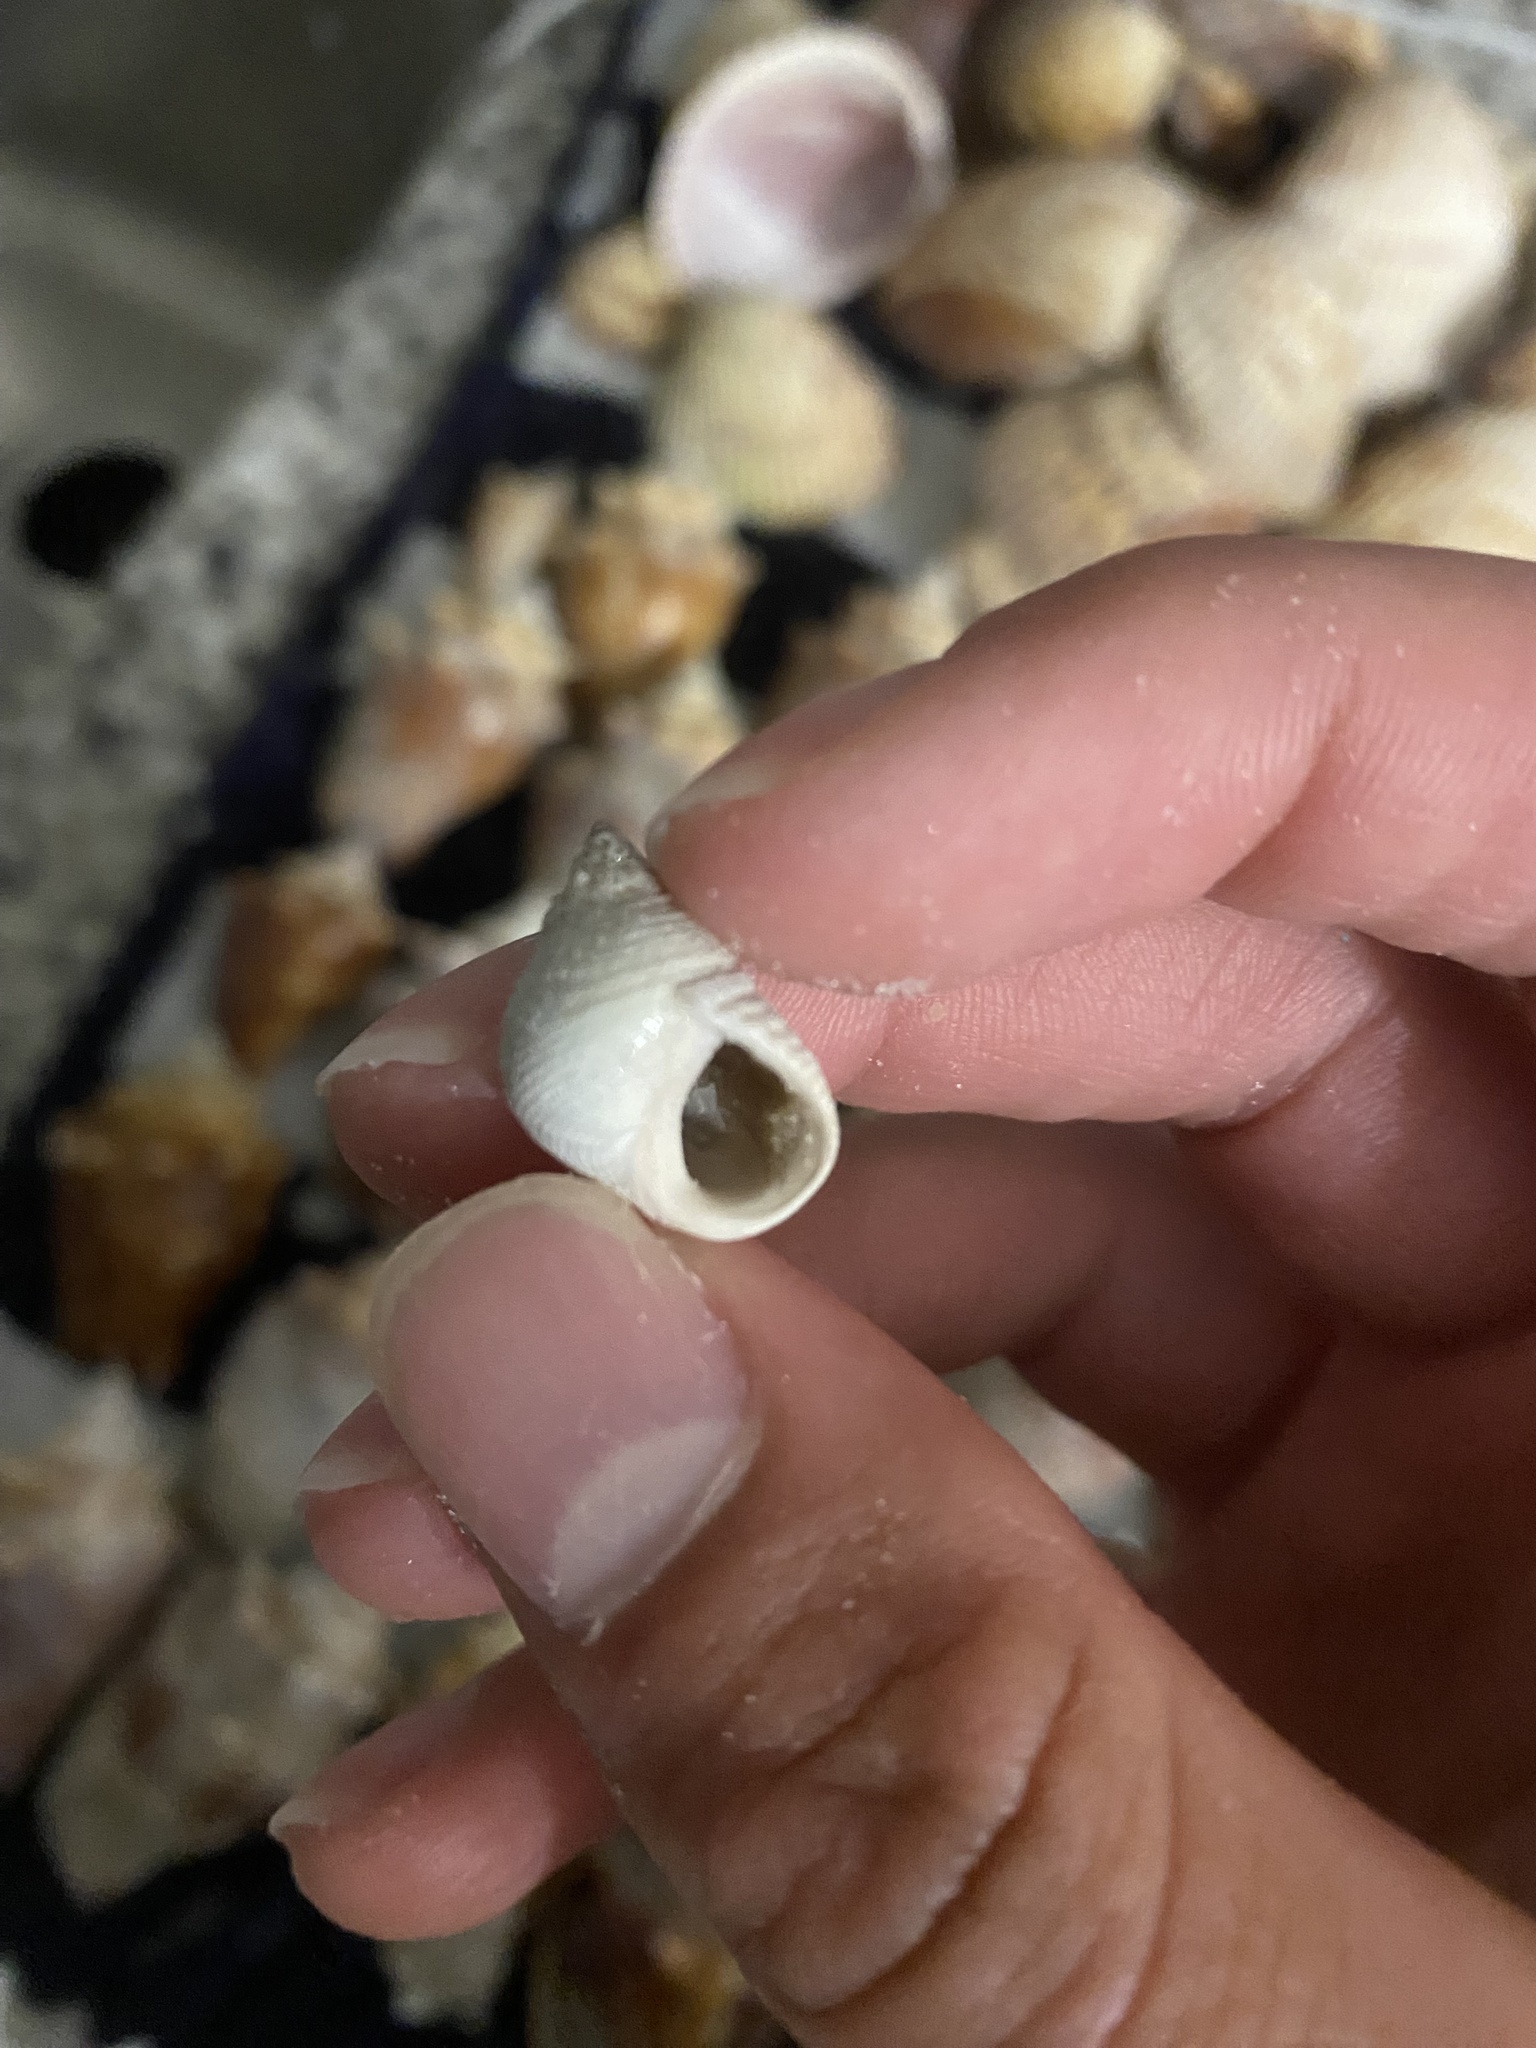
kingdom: Animalia
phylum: Mollusca
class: Gastropoda
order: Littorinimorpha
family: Littorinidae
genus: Littoraria
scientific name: Littoraria irrorata
